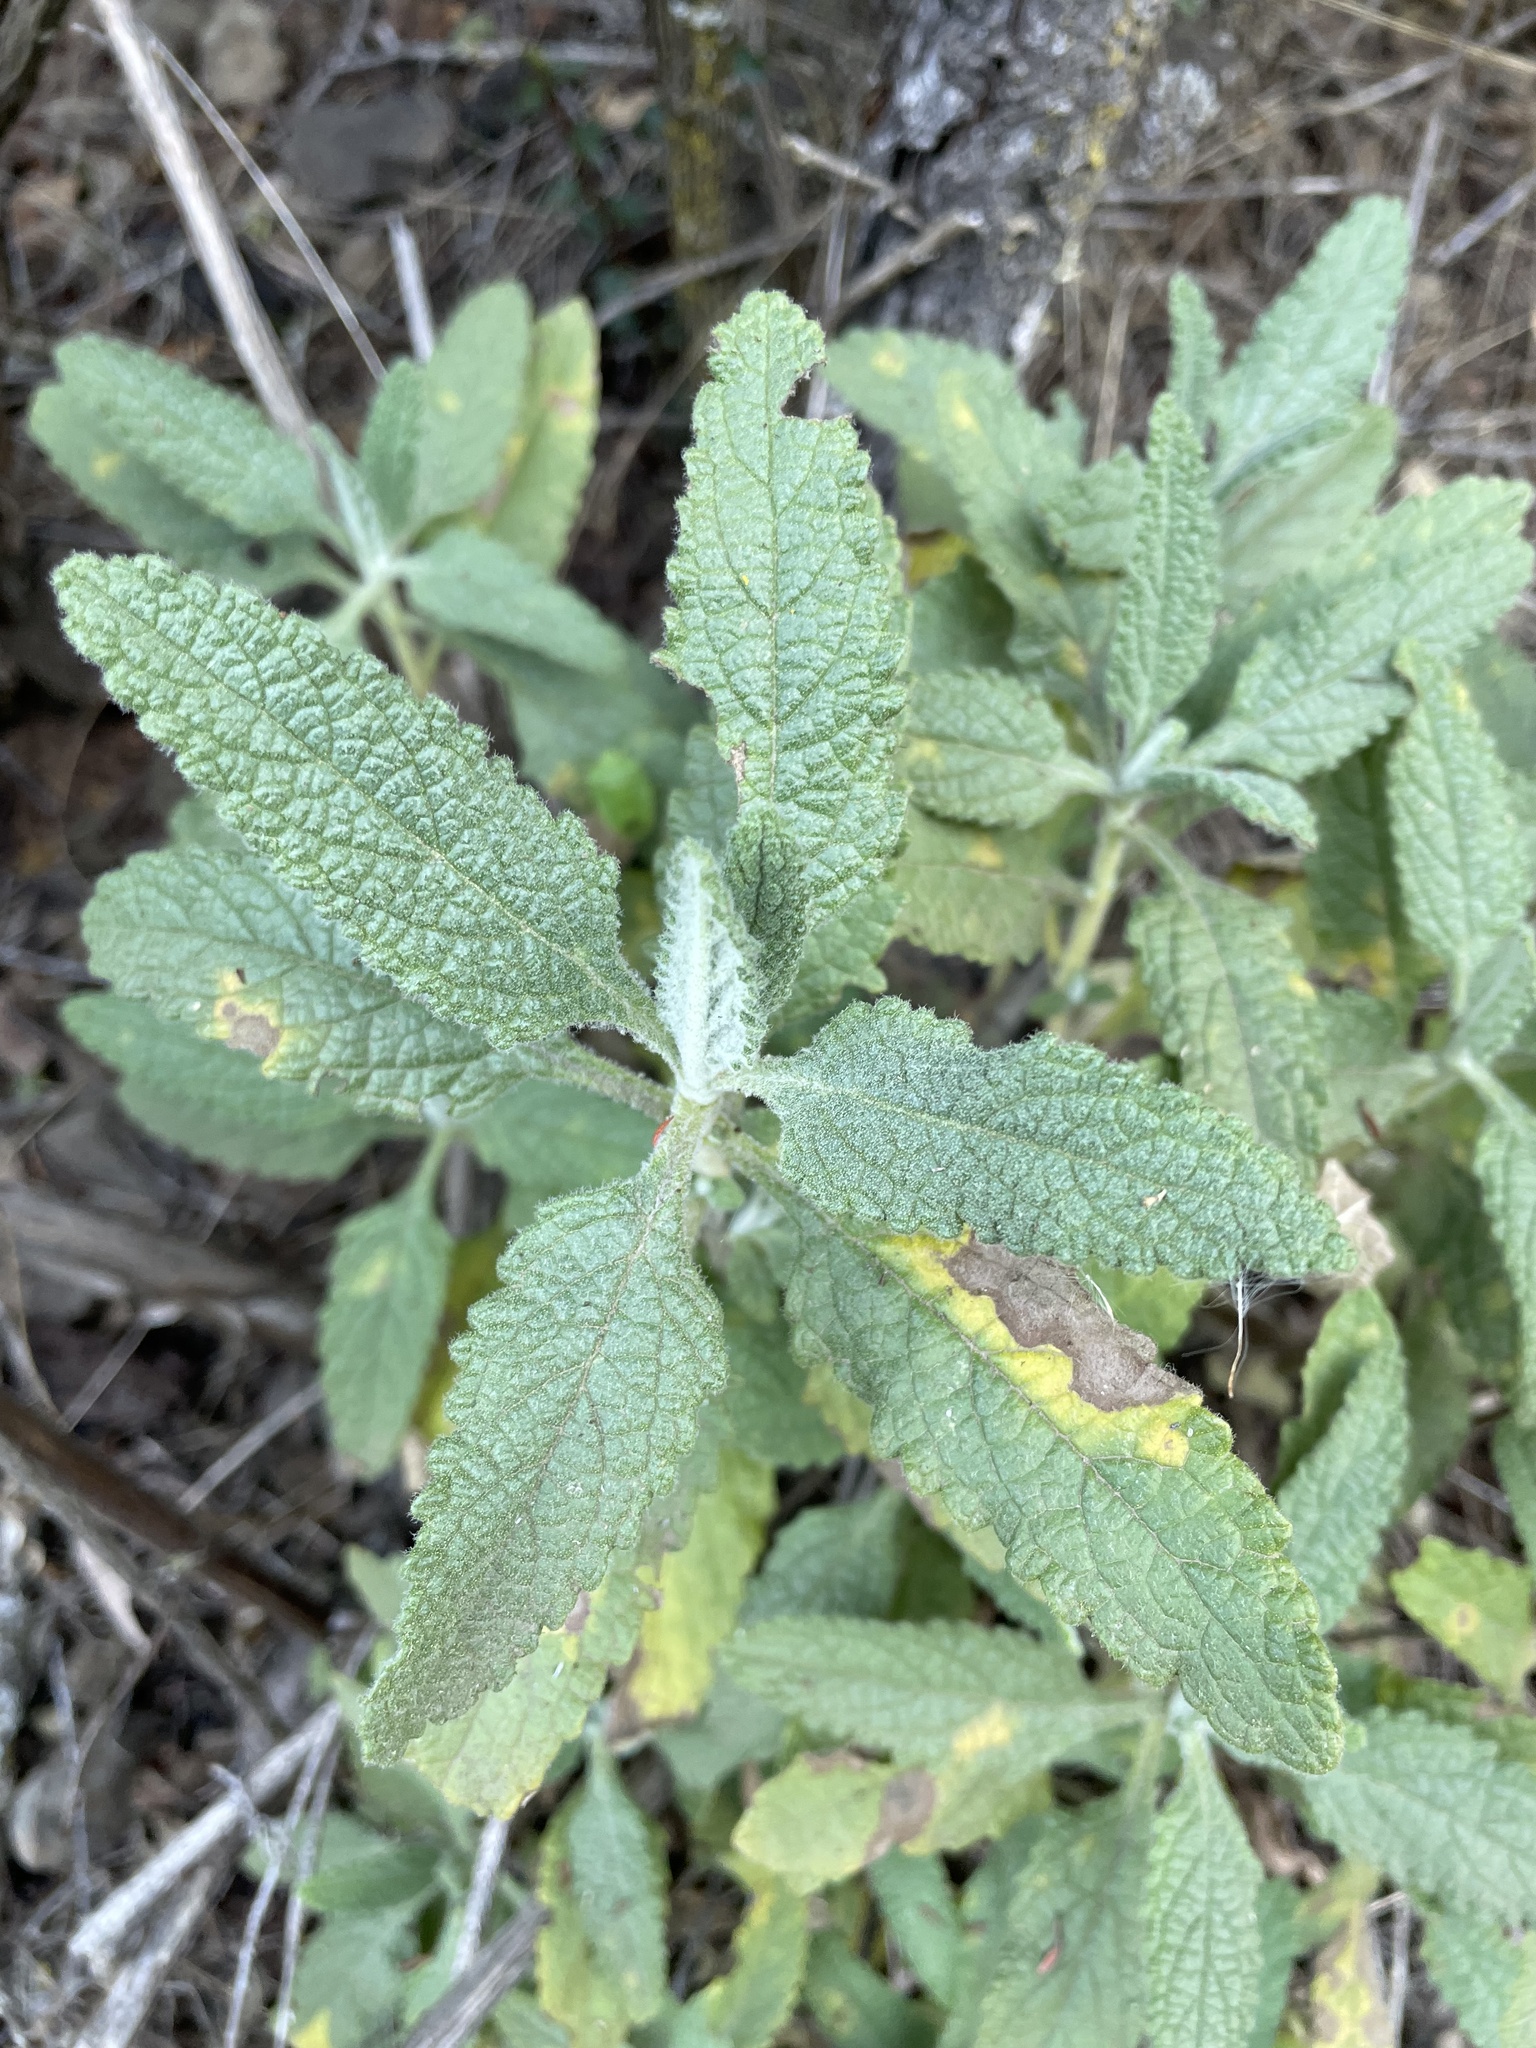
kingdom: Plantae
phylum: Tracheophyta
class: Magnoliopsida
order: Lamiales
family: Lamiaceae
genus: Lepechinia
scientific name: Lepechinia calycina
